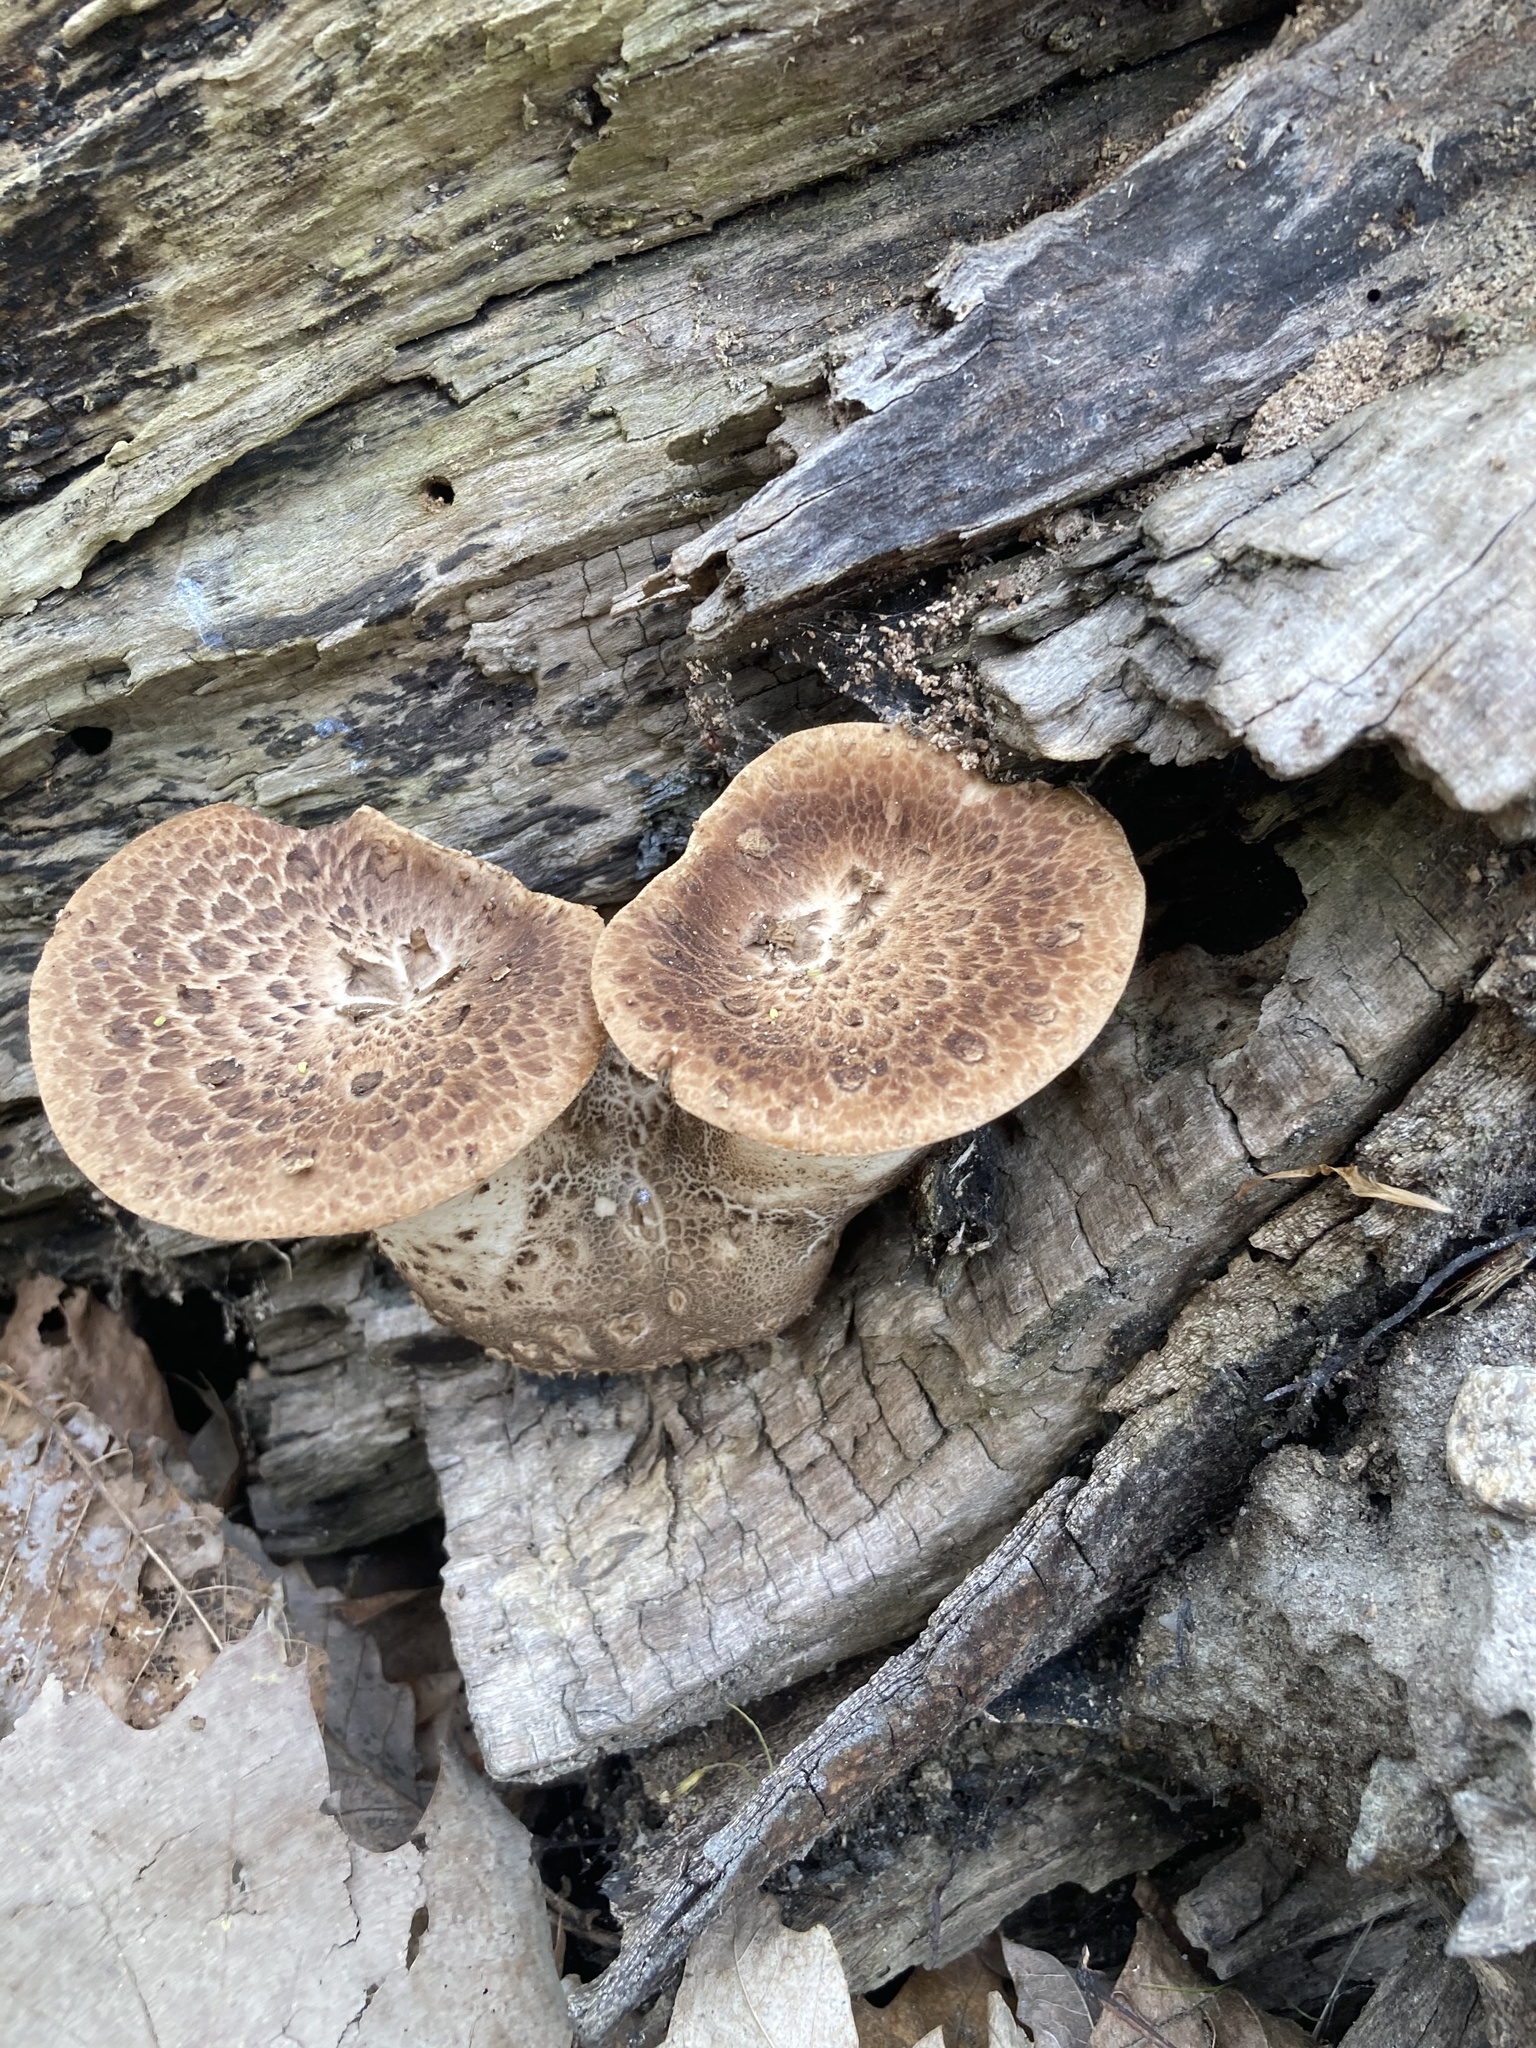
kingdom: Fungi
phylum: Basidiomycota
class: Agaricomycetes
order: Polyporales
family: Polyporaceae
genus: Cerioporus
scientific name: Cerioporus squamosus
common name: Dryad's saddle
